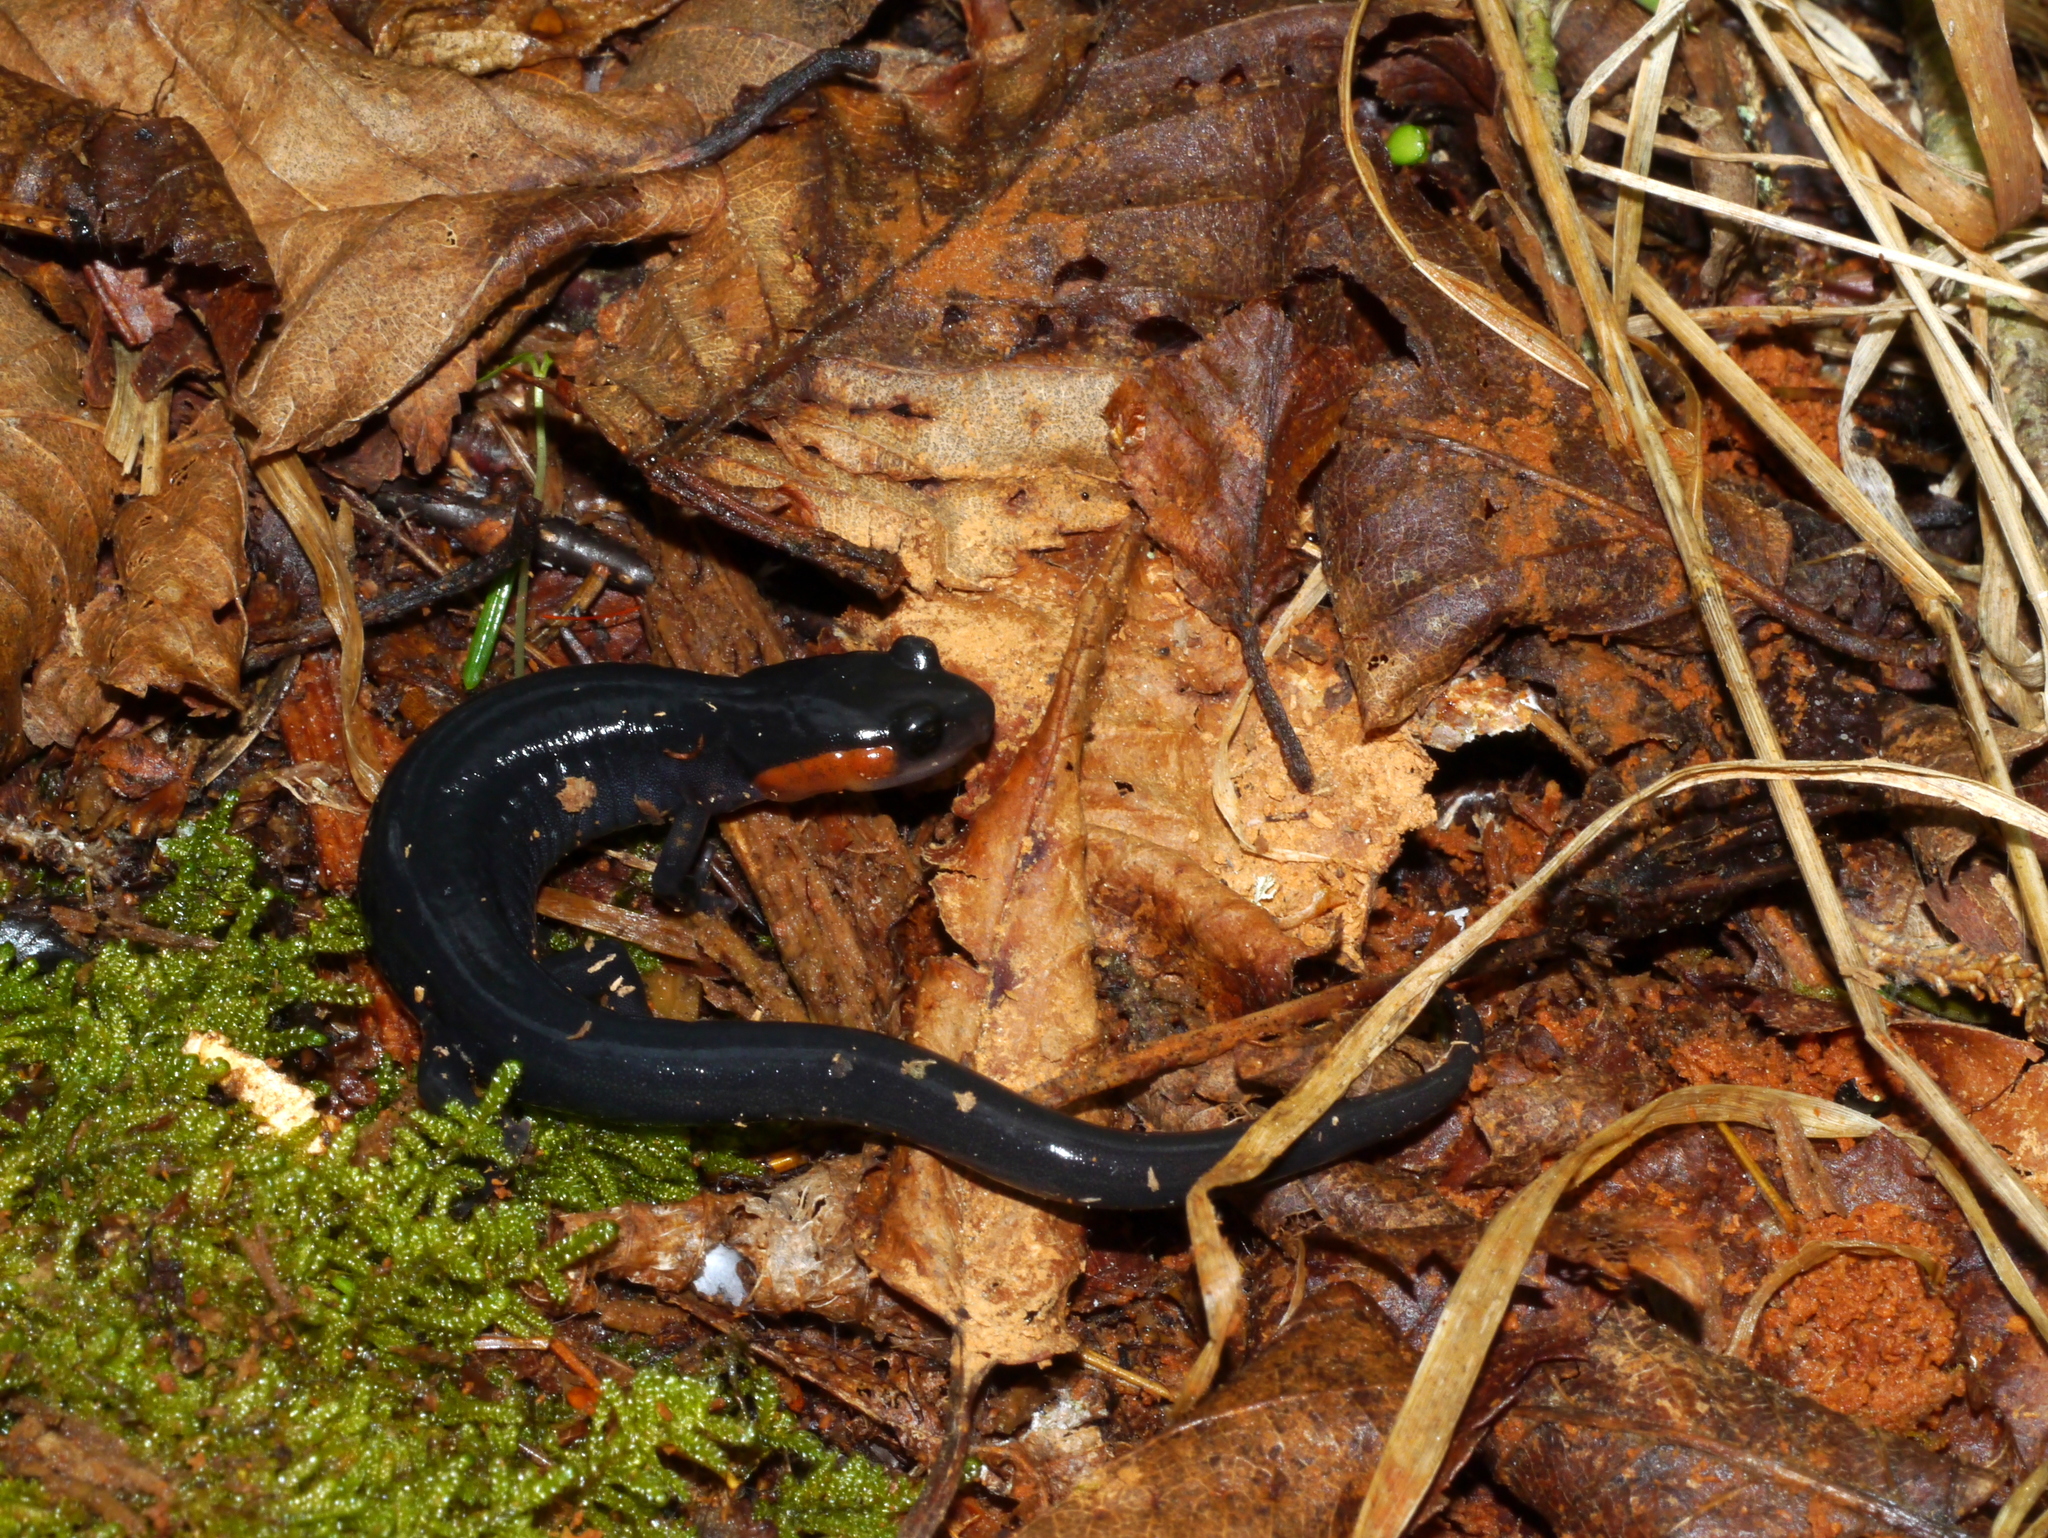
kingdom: Animalia
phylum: Chordata
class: Amphibia
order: Caudata
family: Plethodontidae
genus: Plethodon
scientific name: Plethodon jordani
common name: Red-cheeked salamander
